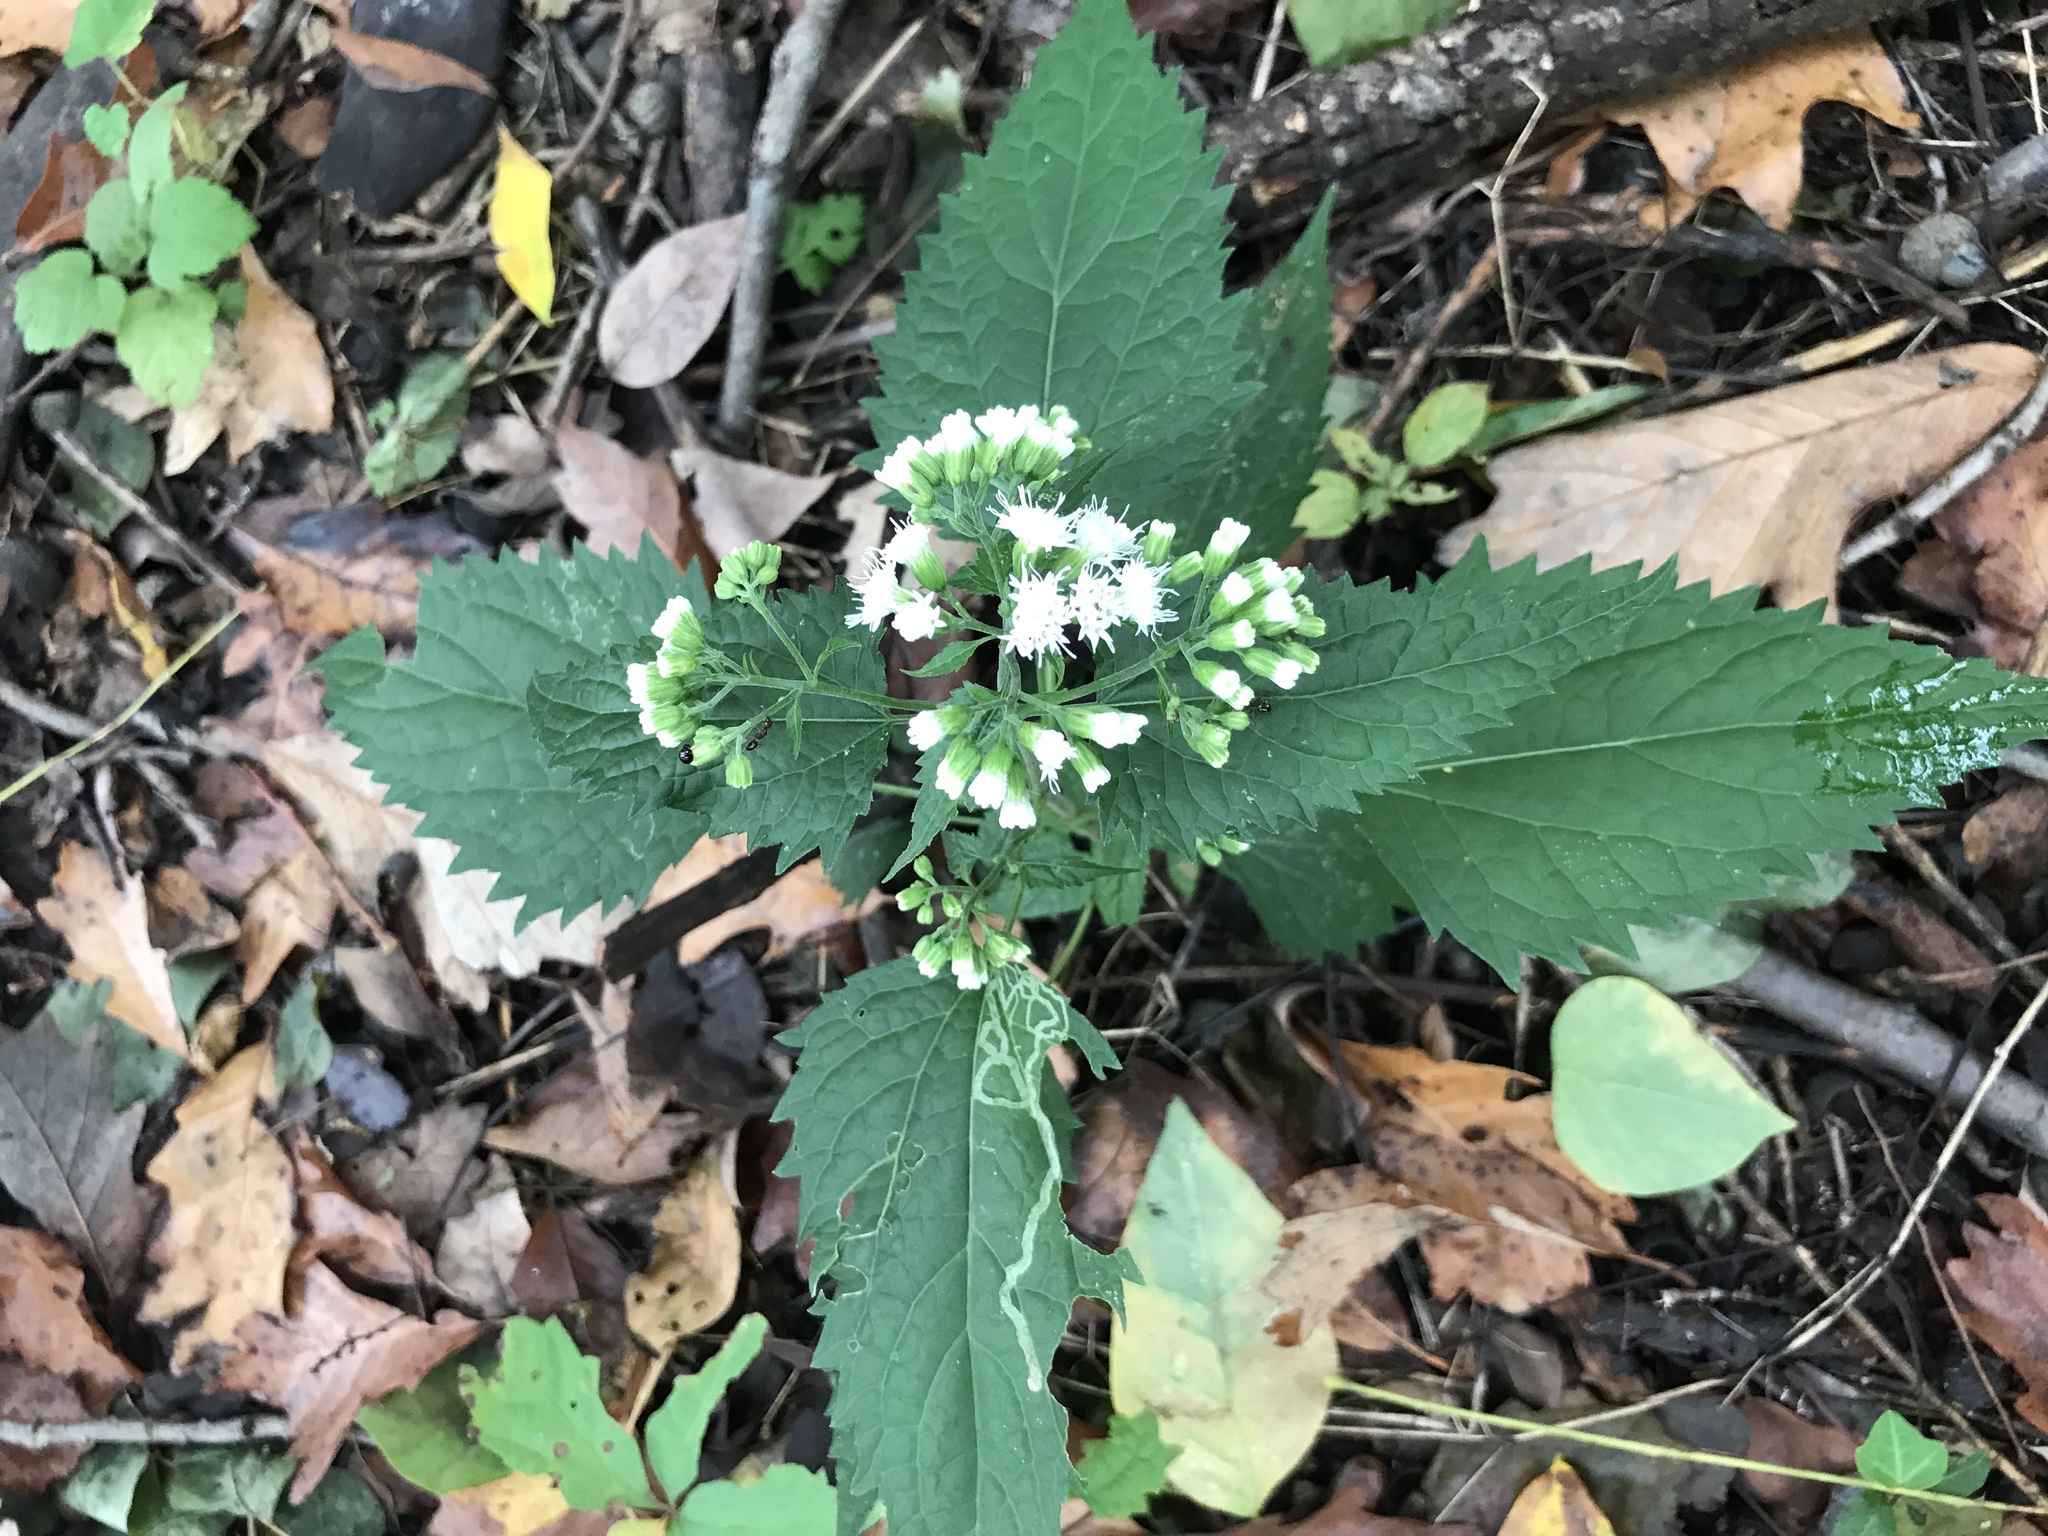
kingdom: Plantae
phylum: Tracheophyta
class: Magnoliopsida
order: Asterales
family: Asteraceae
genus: Ageratina
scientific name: Ageratina altissima
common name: White snakeroot
